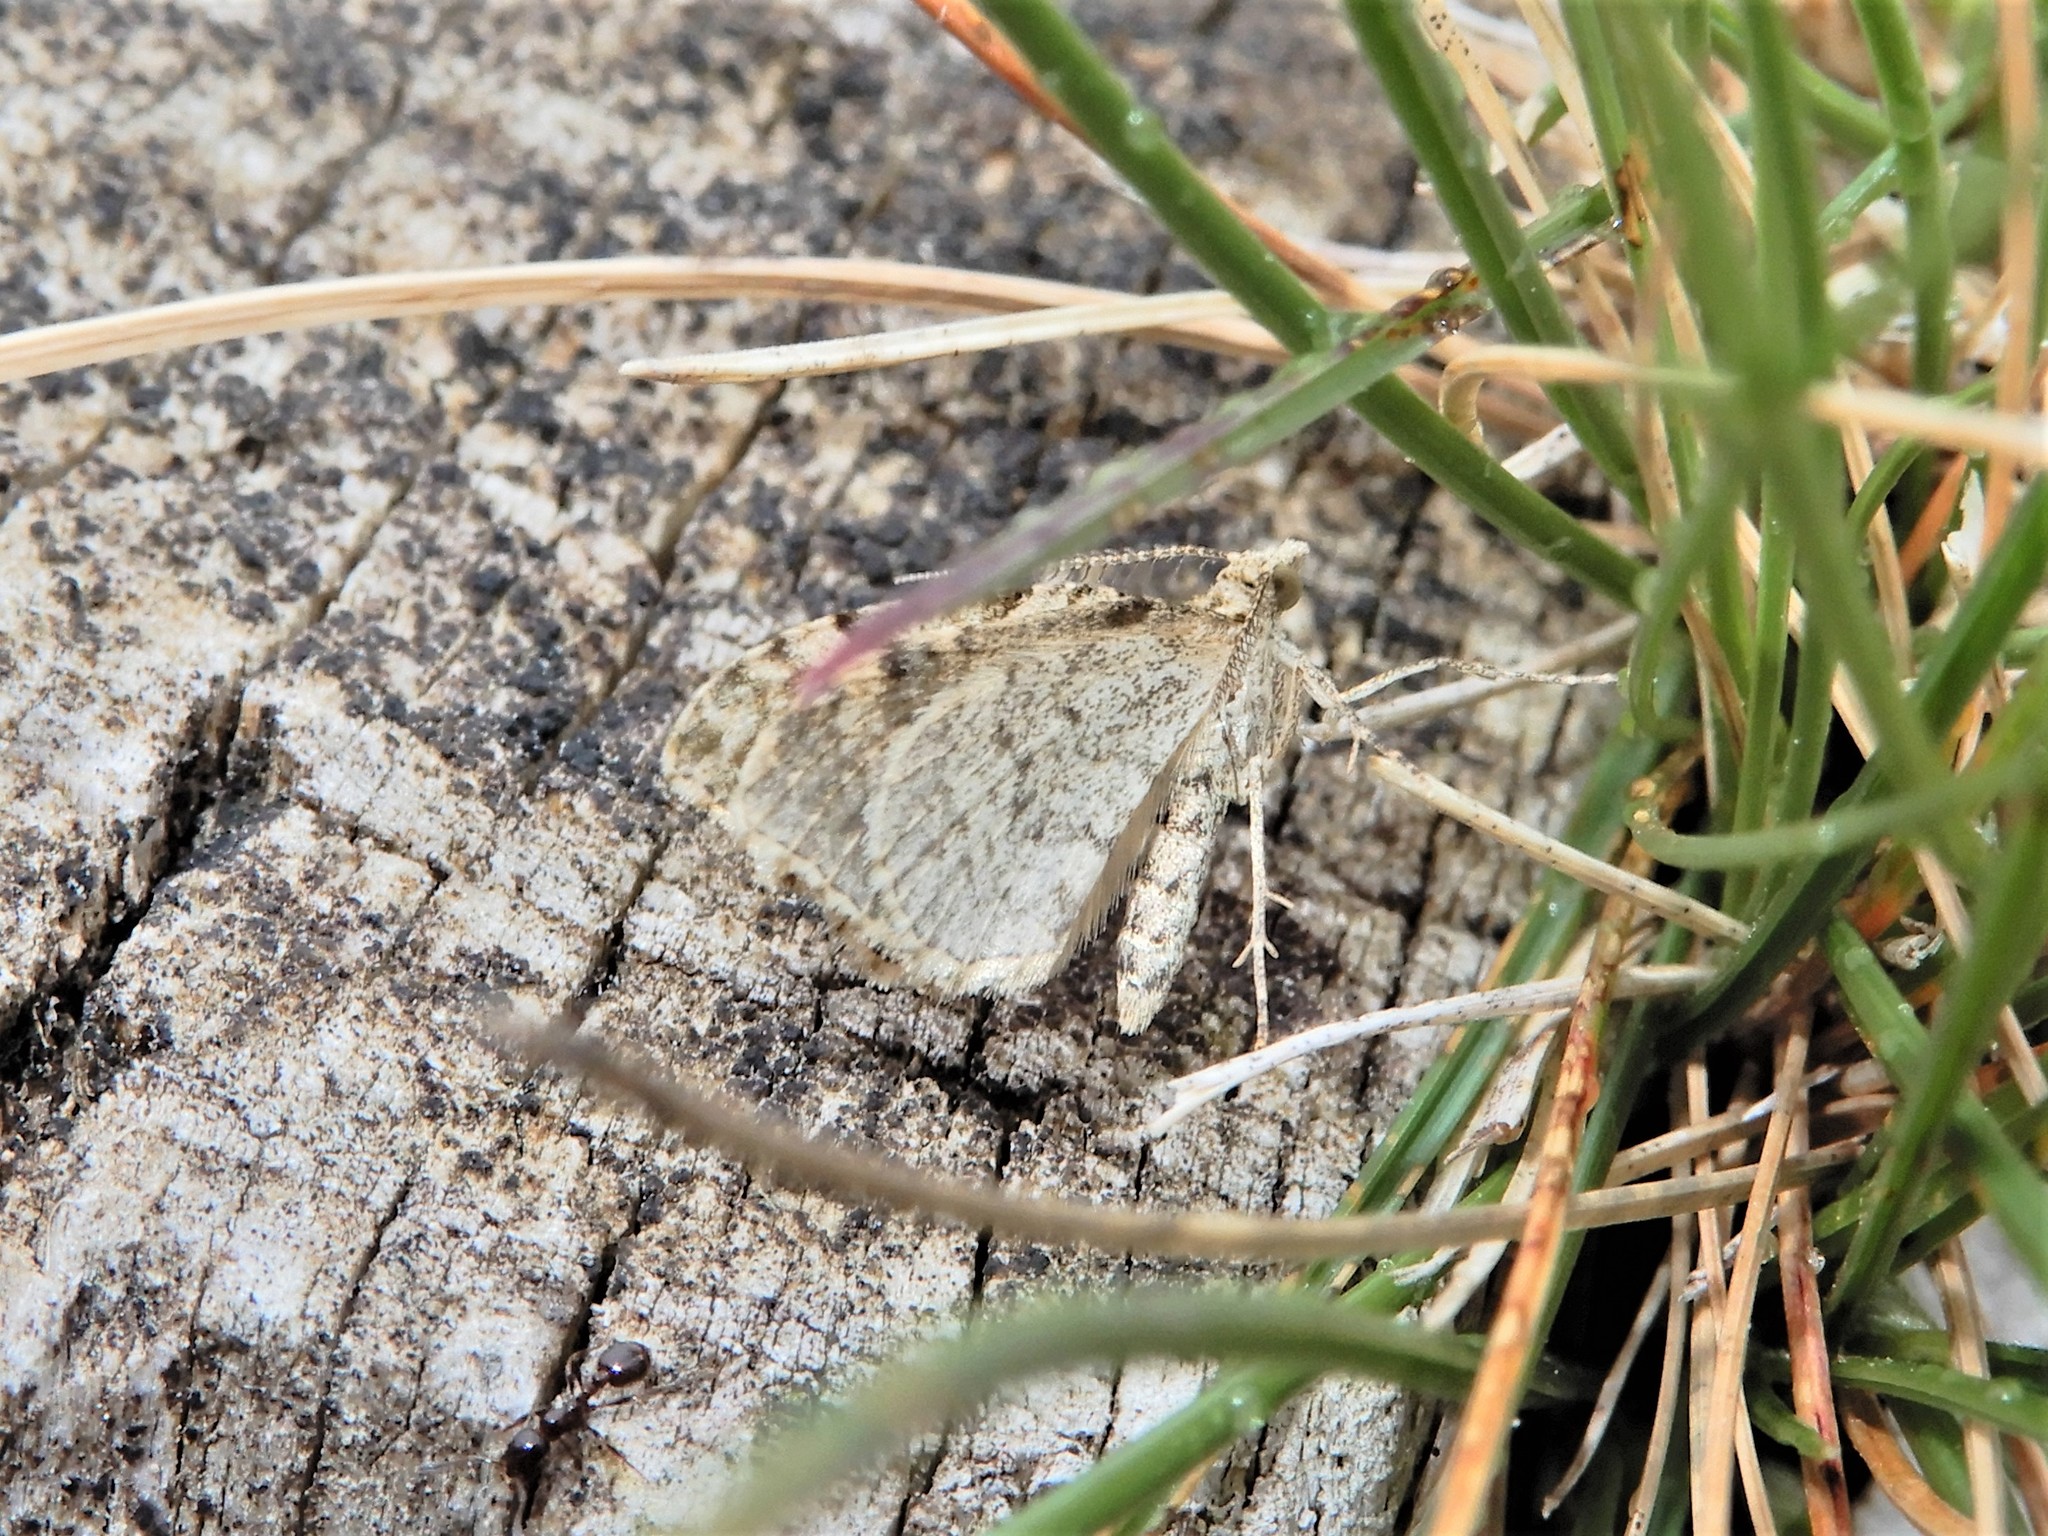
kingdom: Animalia
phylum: Arthropoda
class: Insecta
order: Lepidoptera
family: Geometridae
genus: Helastia
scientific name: Helastia cinerearia
